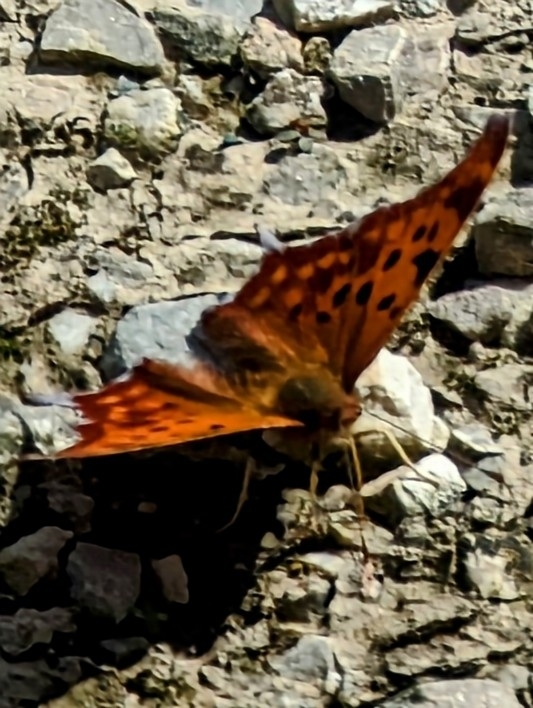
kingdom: Animalia
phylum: Arthropoda
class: Insecta
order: Lepidoptera
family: Nymphalidae
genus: Polygonia
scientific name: Polygonia interrogationis
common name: Question mark
